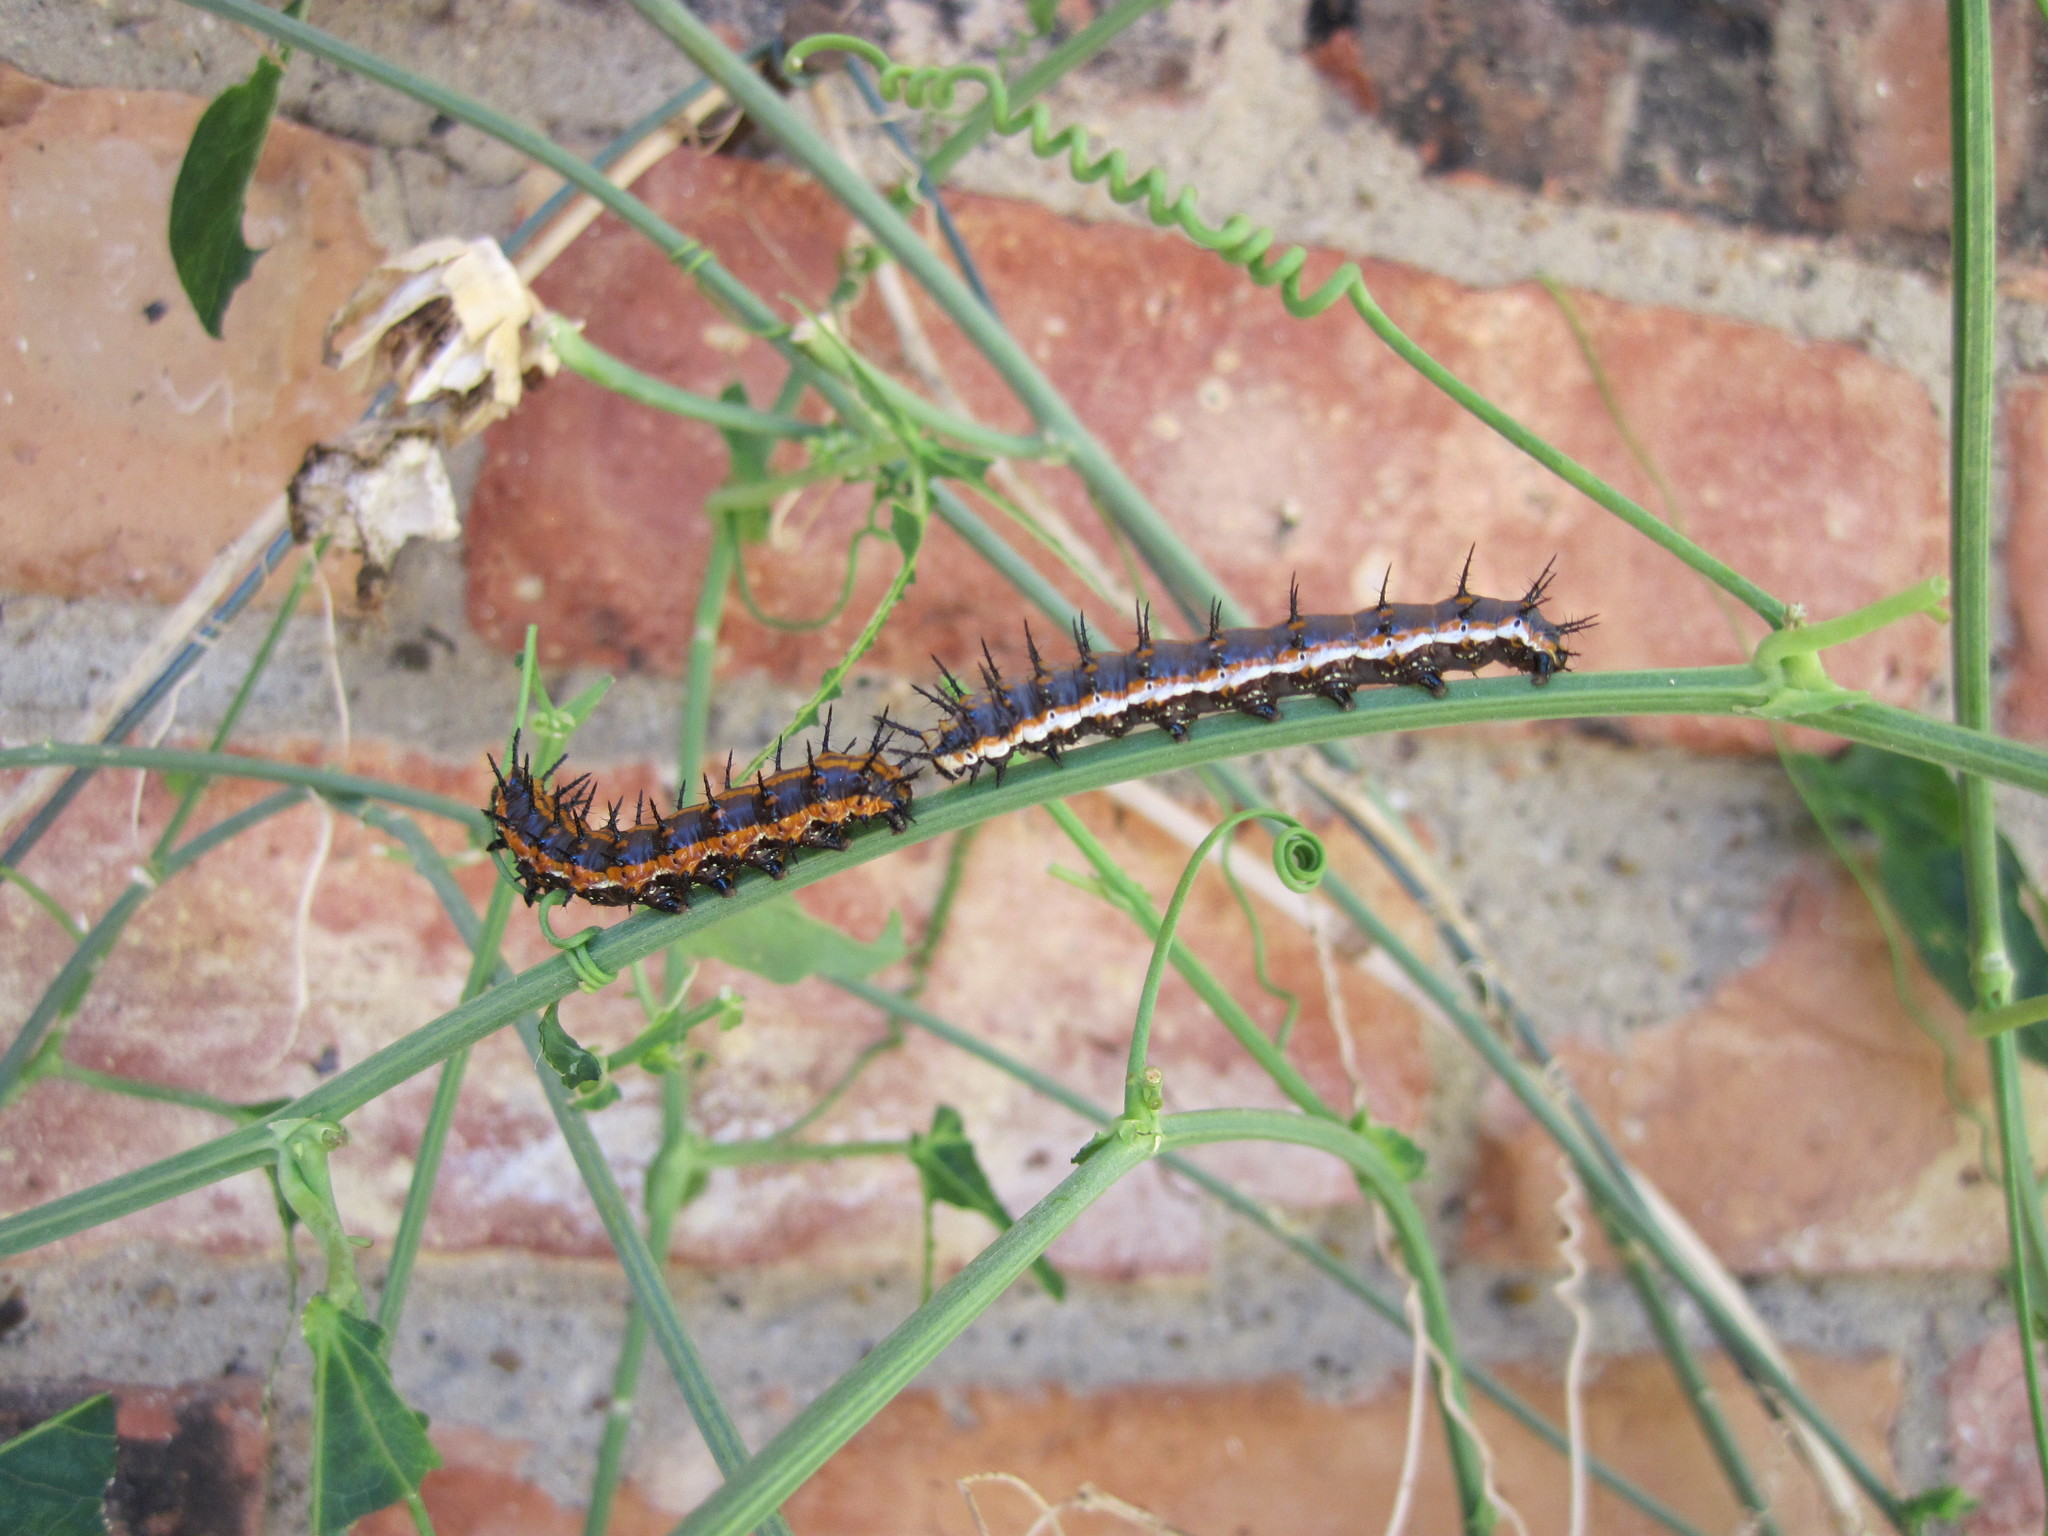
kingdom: Animalia
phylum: Arthropoda
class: Insecta
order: Lepidoptera
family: Nymphalidae
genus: Dione
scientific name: Dione vanillae
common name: Gulf fritillary
